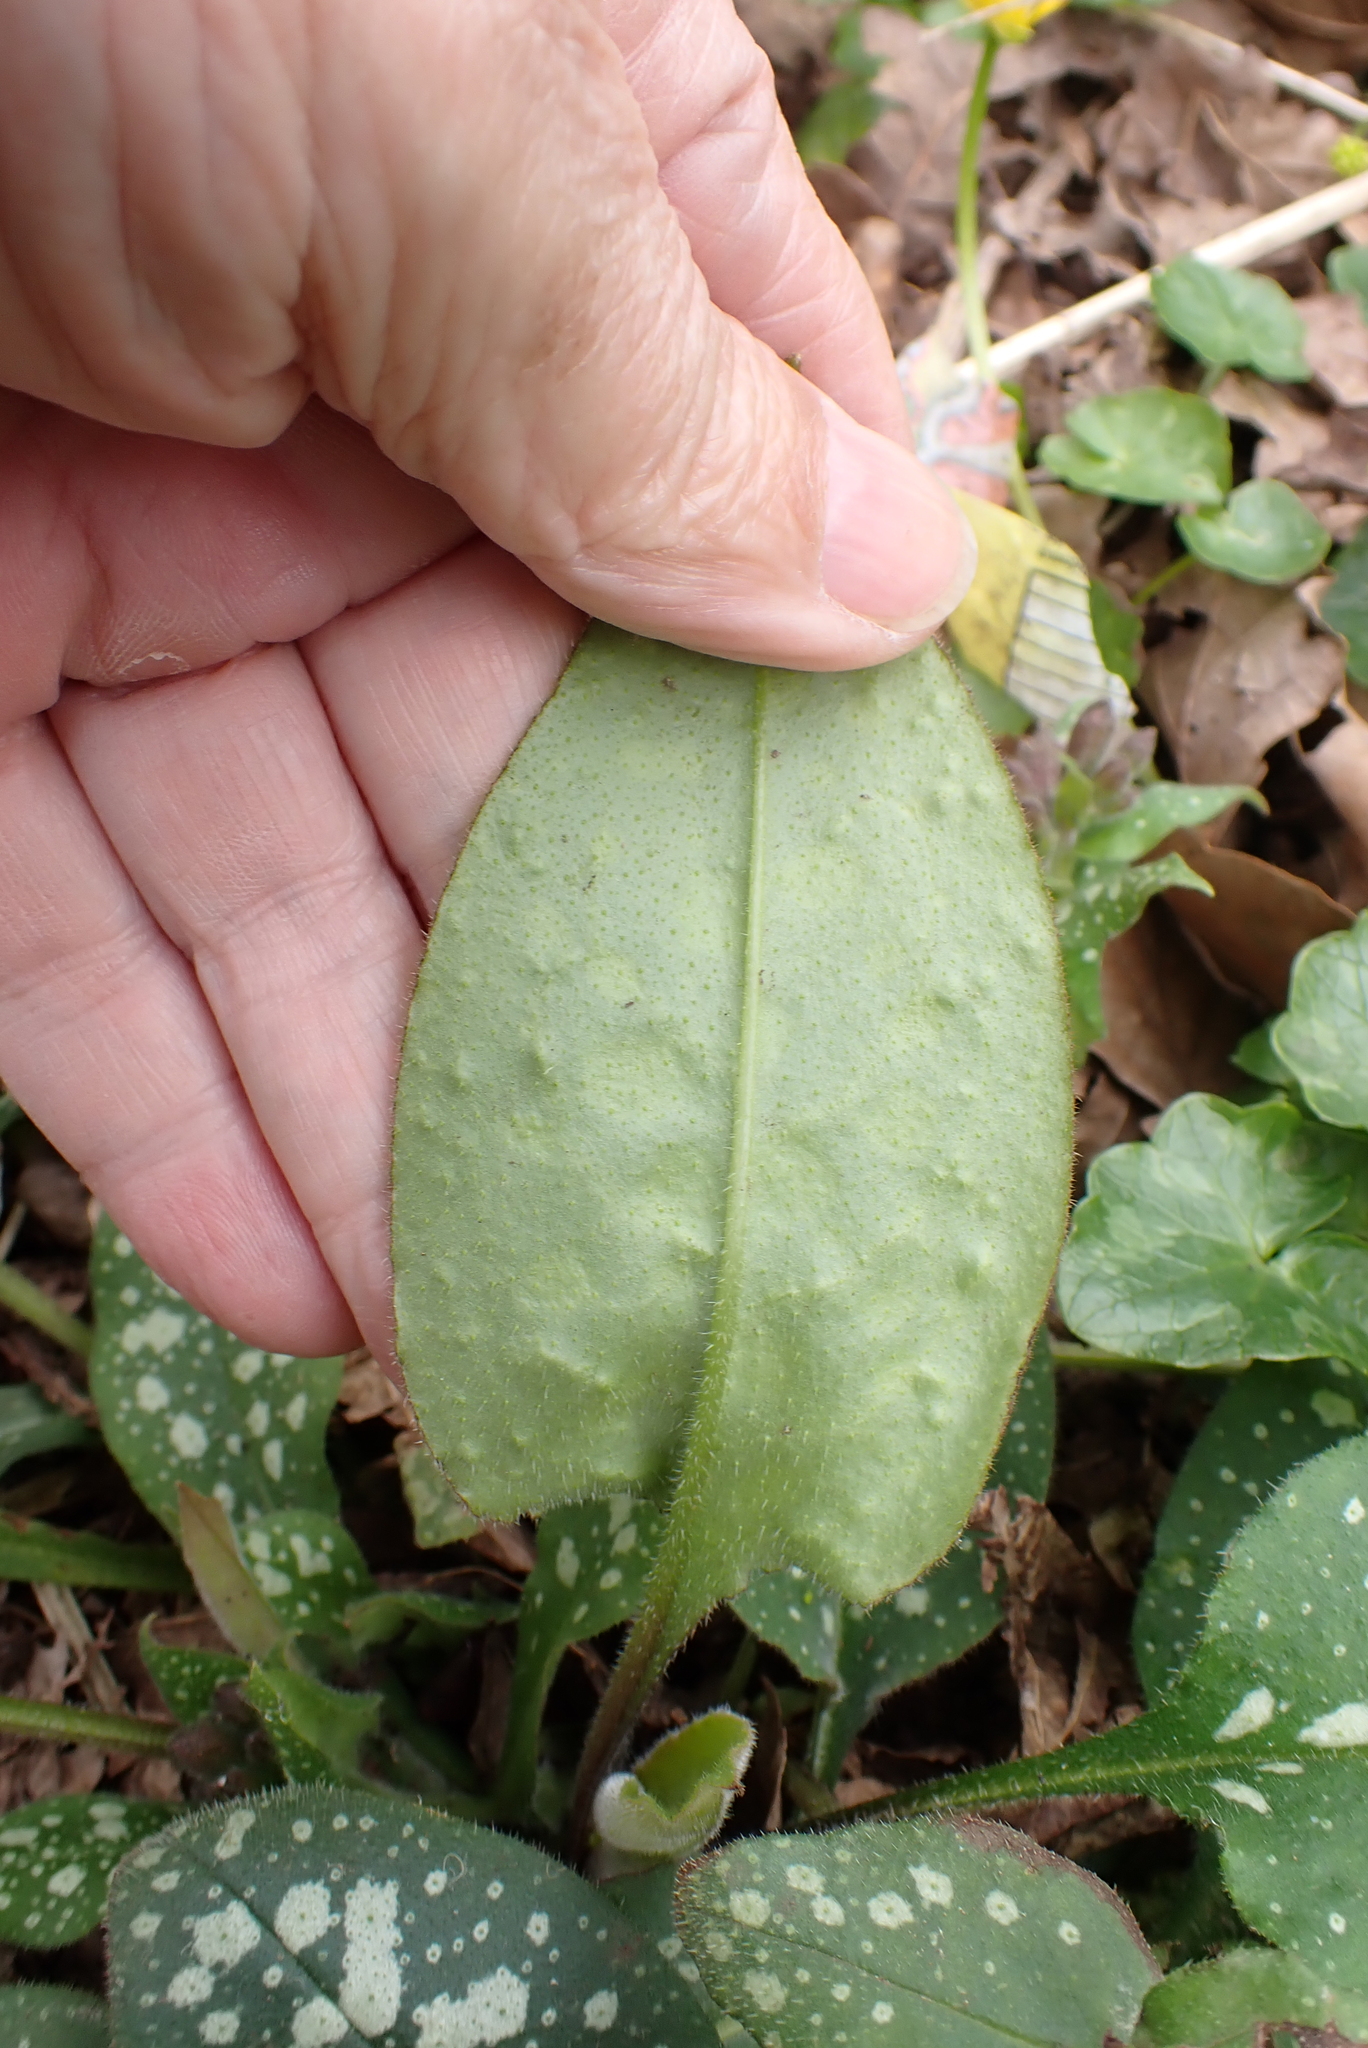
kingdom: Plantae
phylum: Tracheophyta
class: Magnoliopsida
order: Boraginales
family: Boraginaceae
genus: Pulmonaria
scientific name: Pulmonaria officinalis
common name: Lungwort
